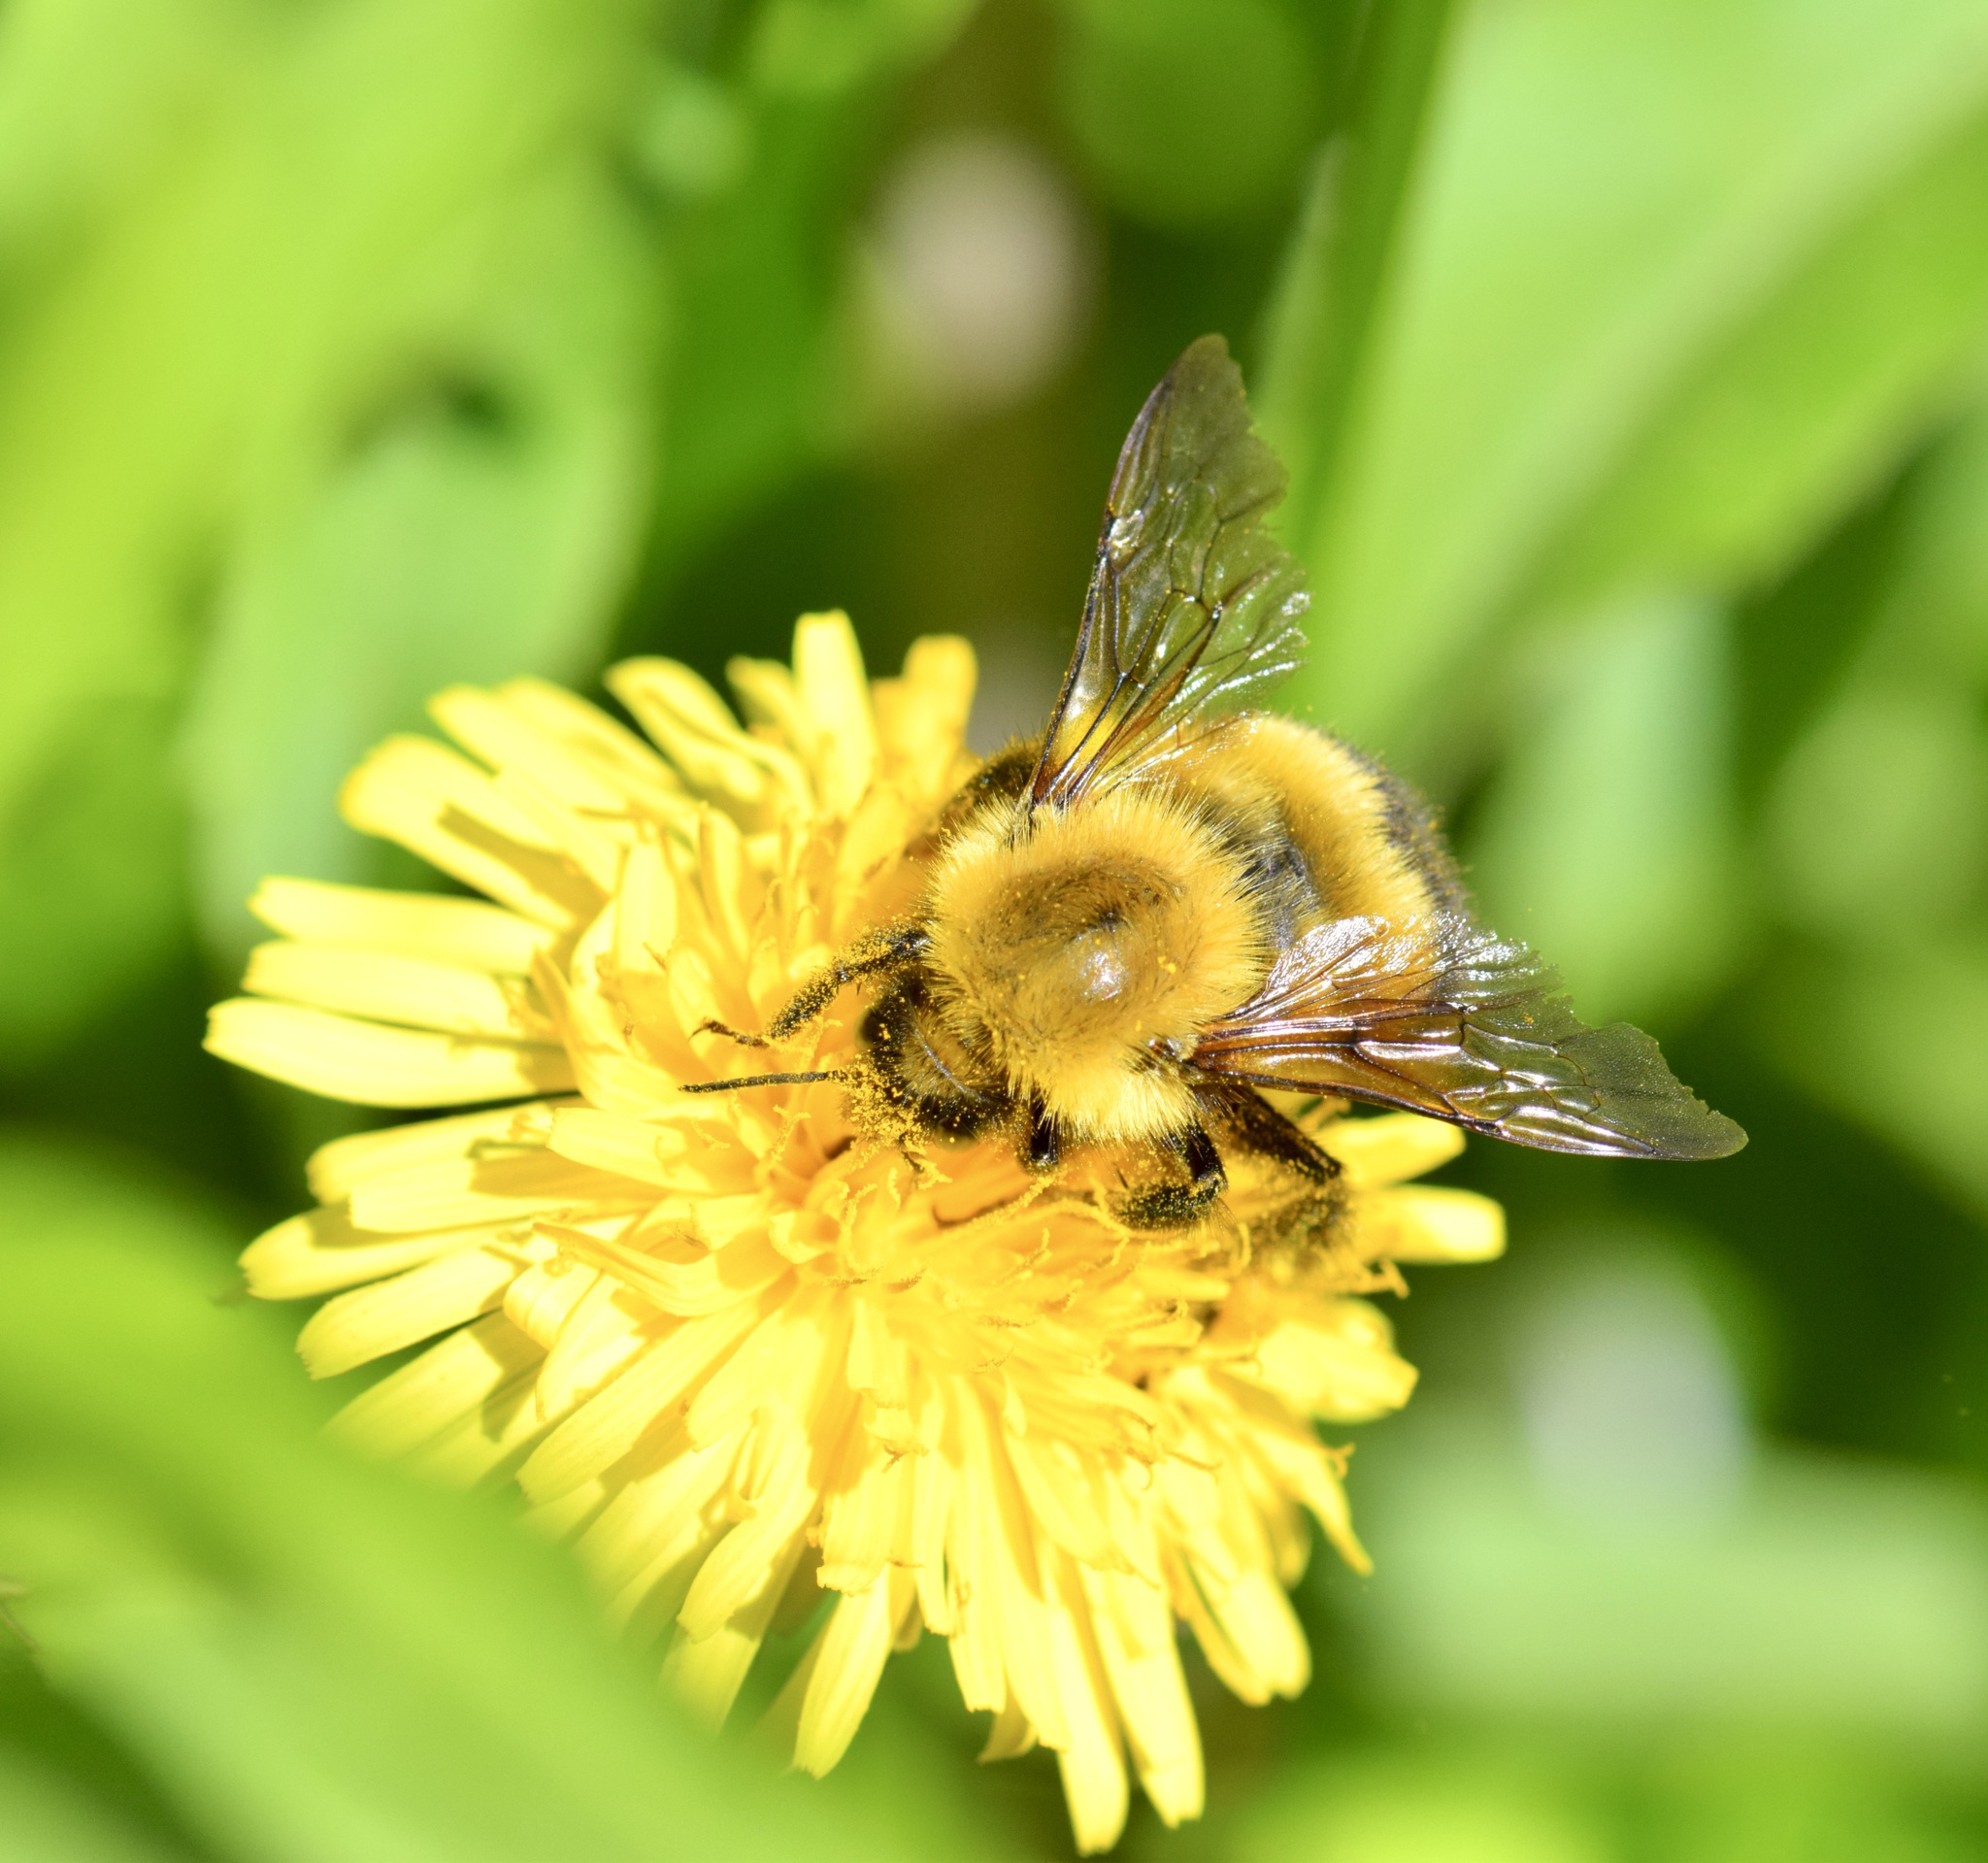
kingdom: Animalia
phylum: Arthropoda
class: Insecta
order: Hymenoptera
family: Apidae
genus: Bombus
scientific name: Bombus perplexus
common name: Confusing bumble bee
